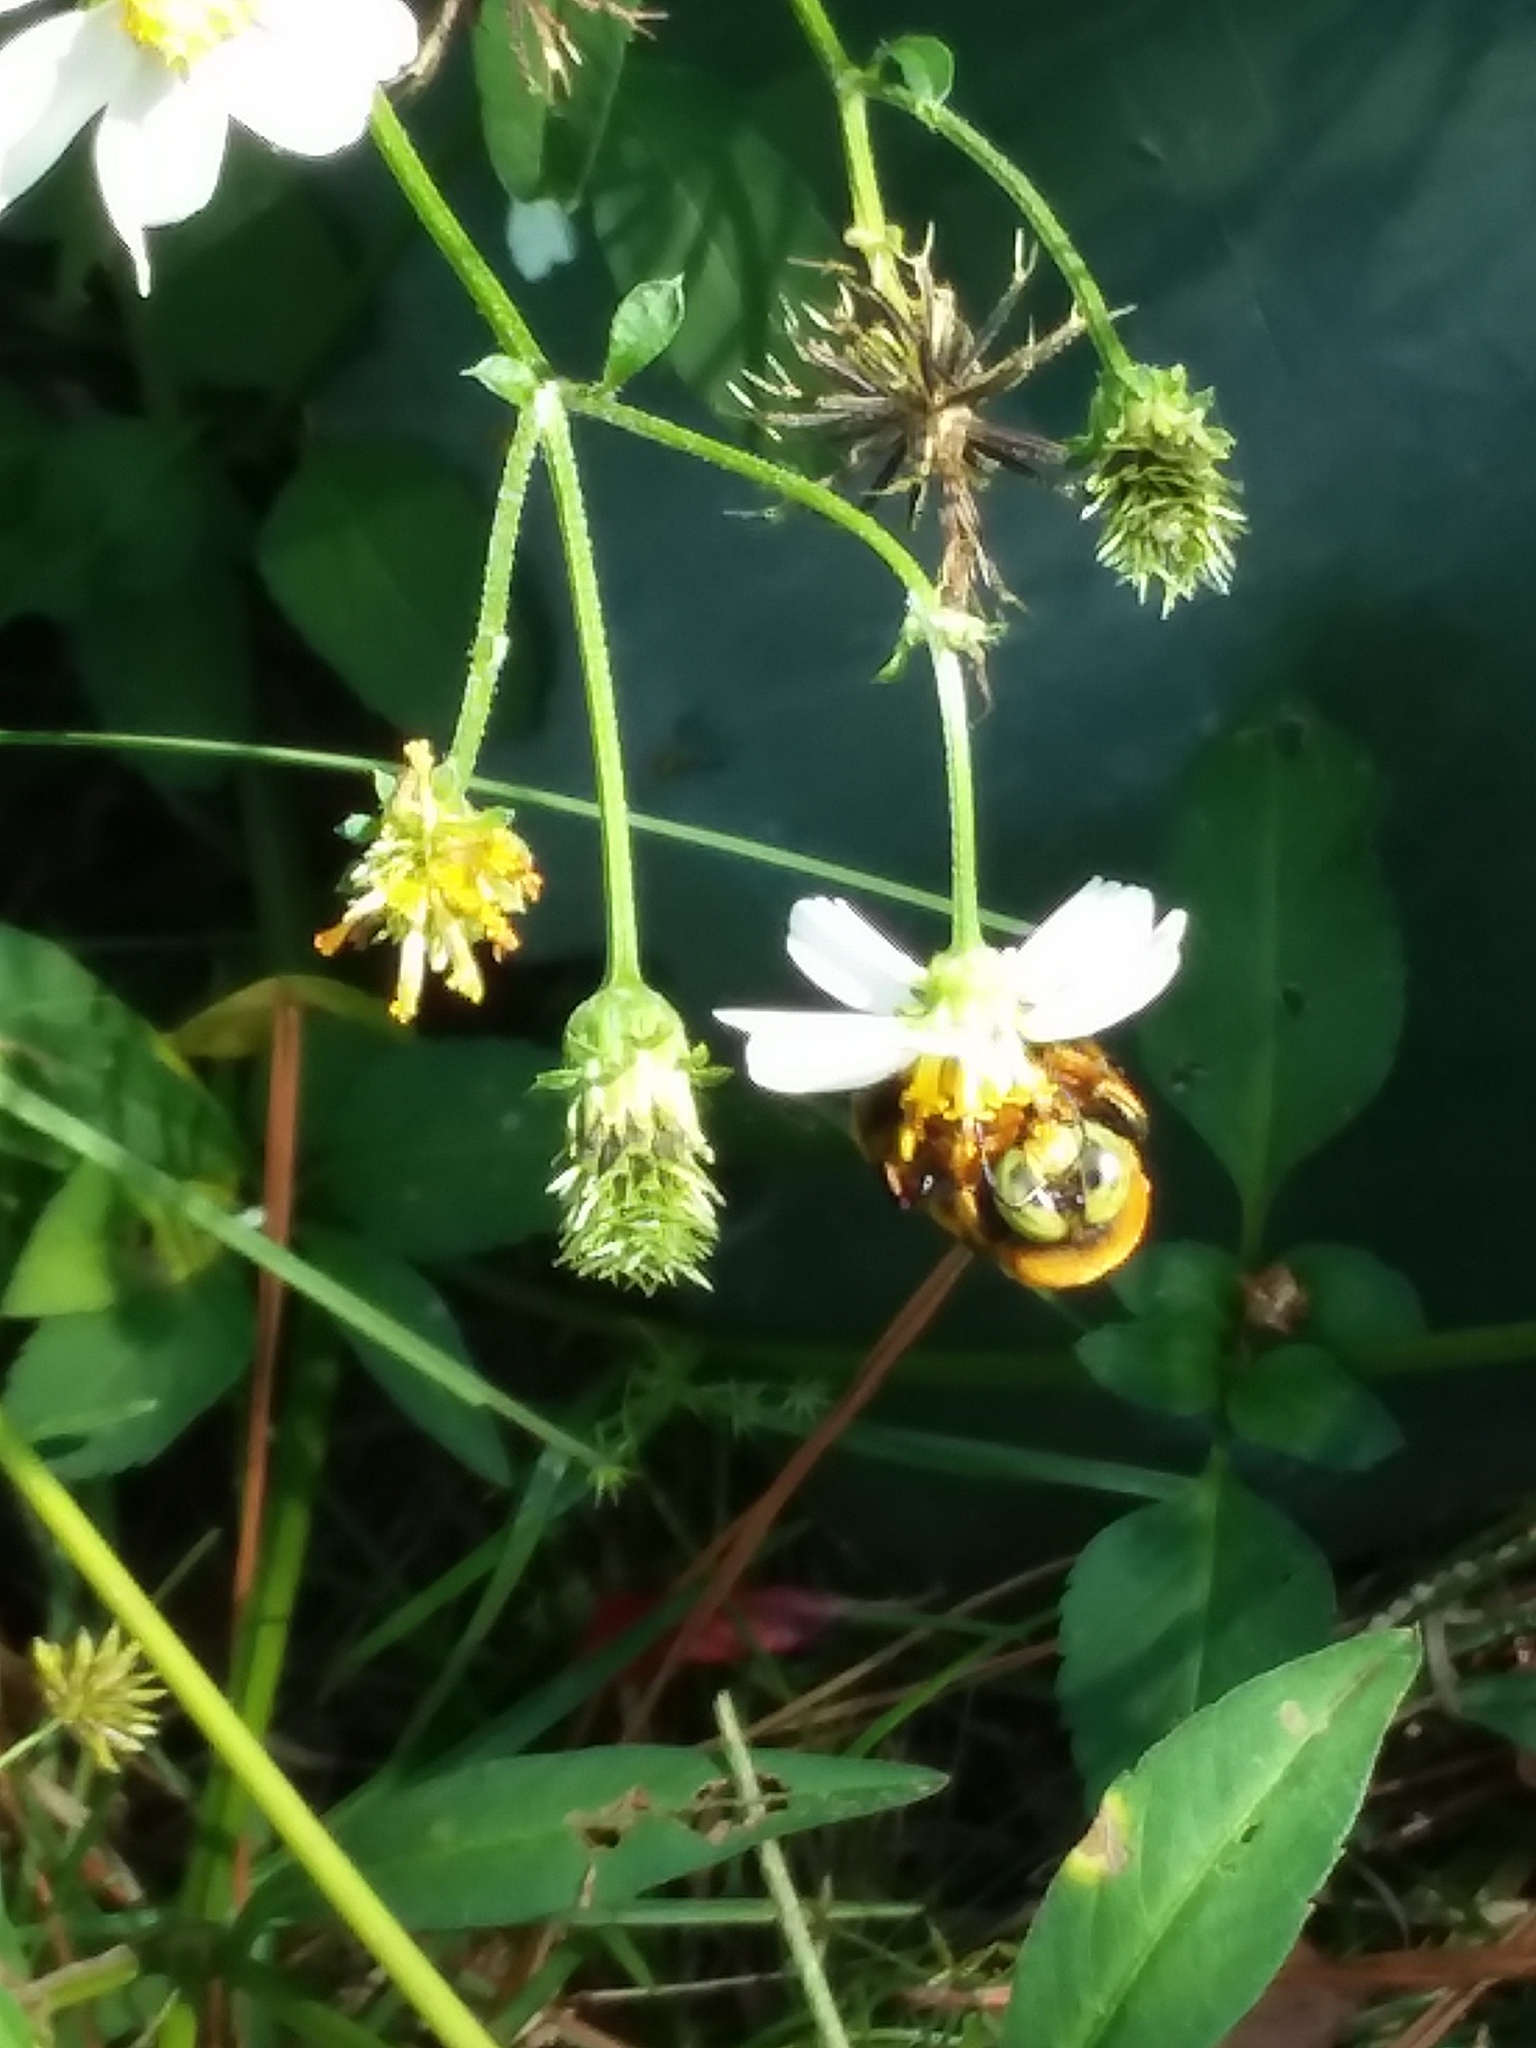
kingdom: Animalia
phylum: Arthropoda
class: Insecta
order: Hymenoptera
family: Apidae
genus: Xylocopa
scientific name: Xylocopa micans
